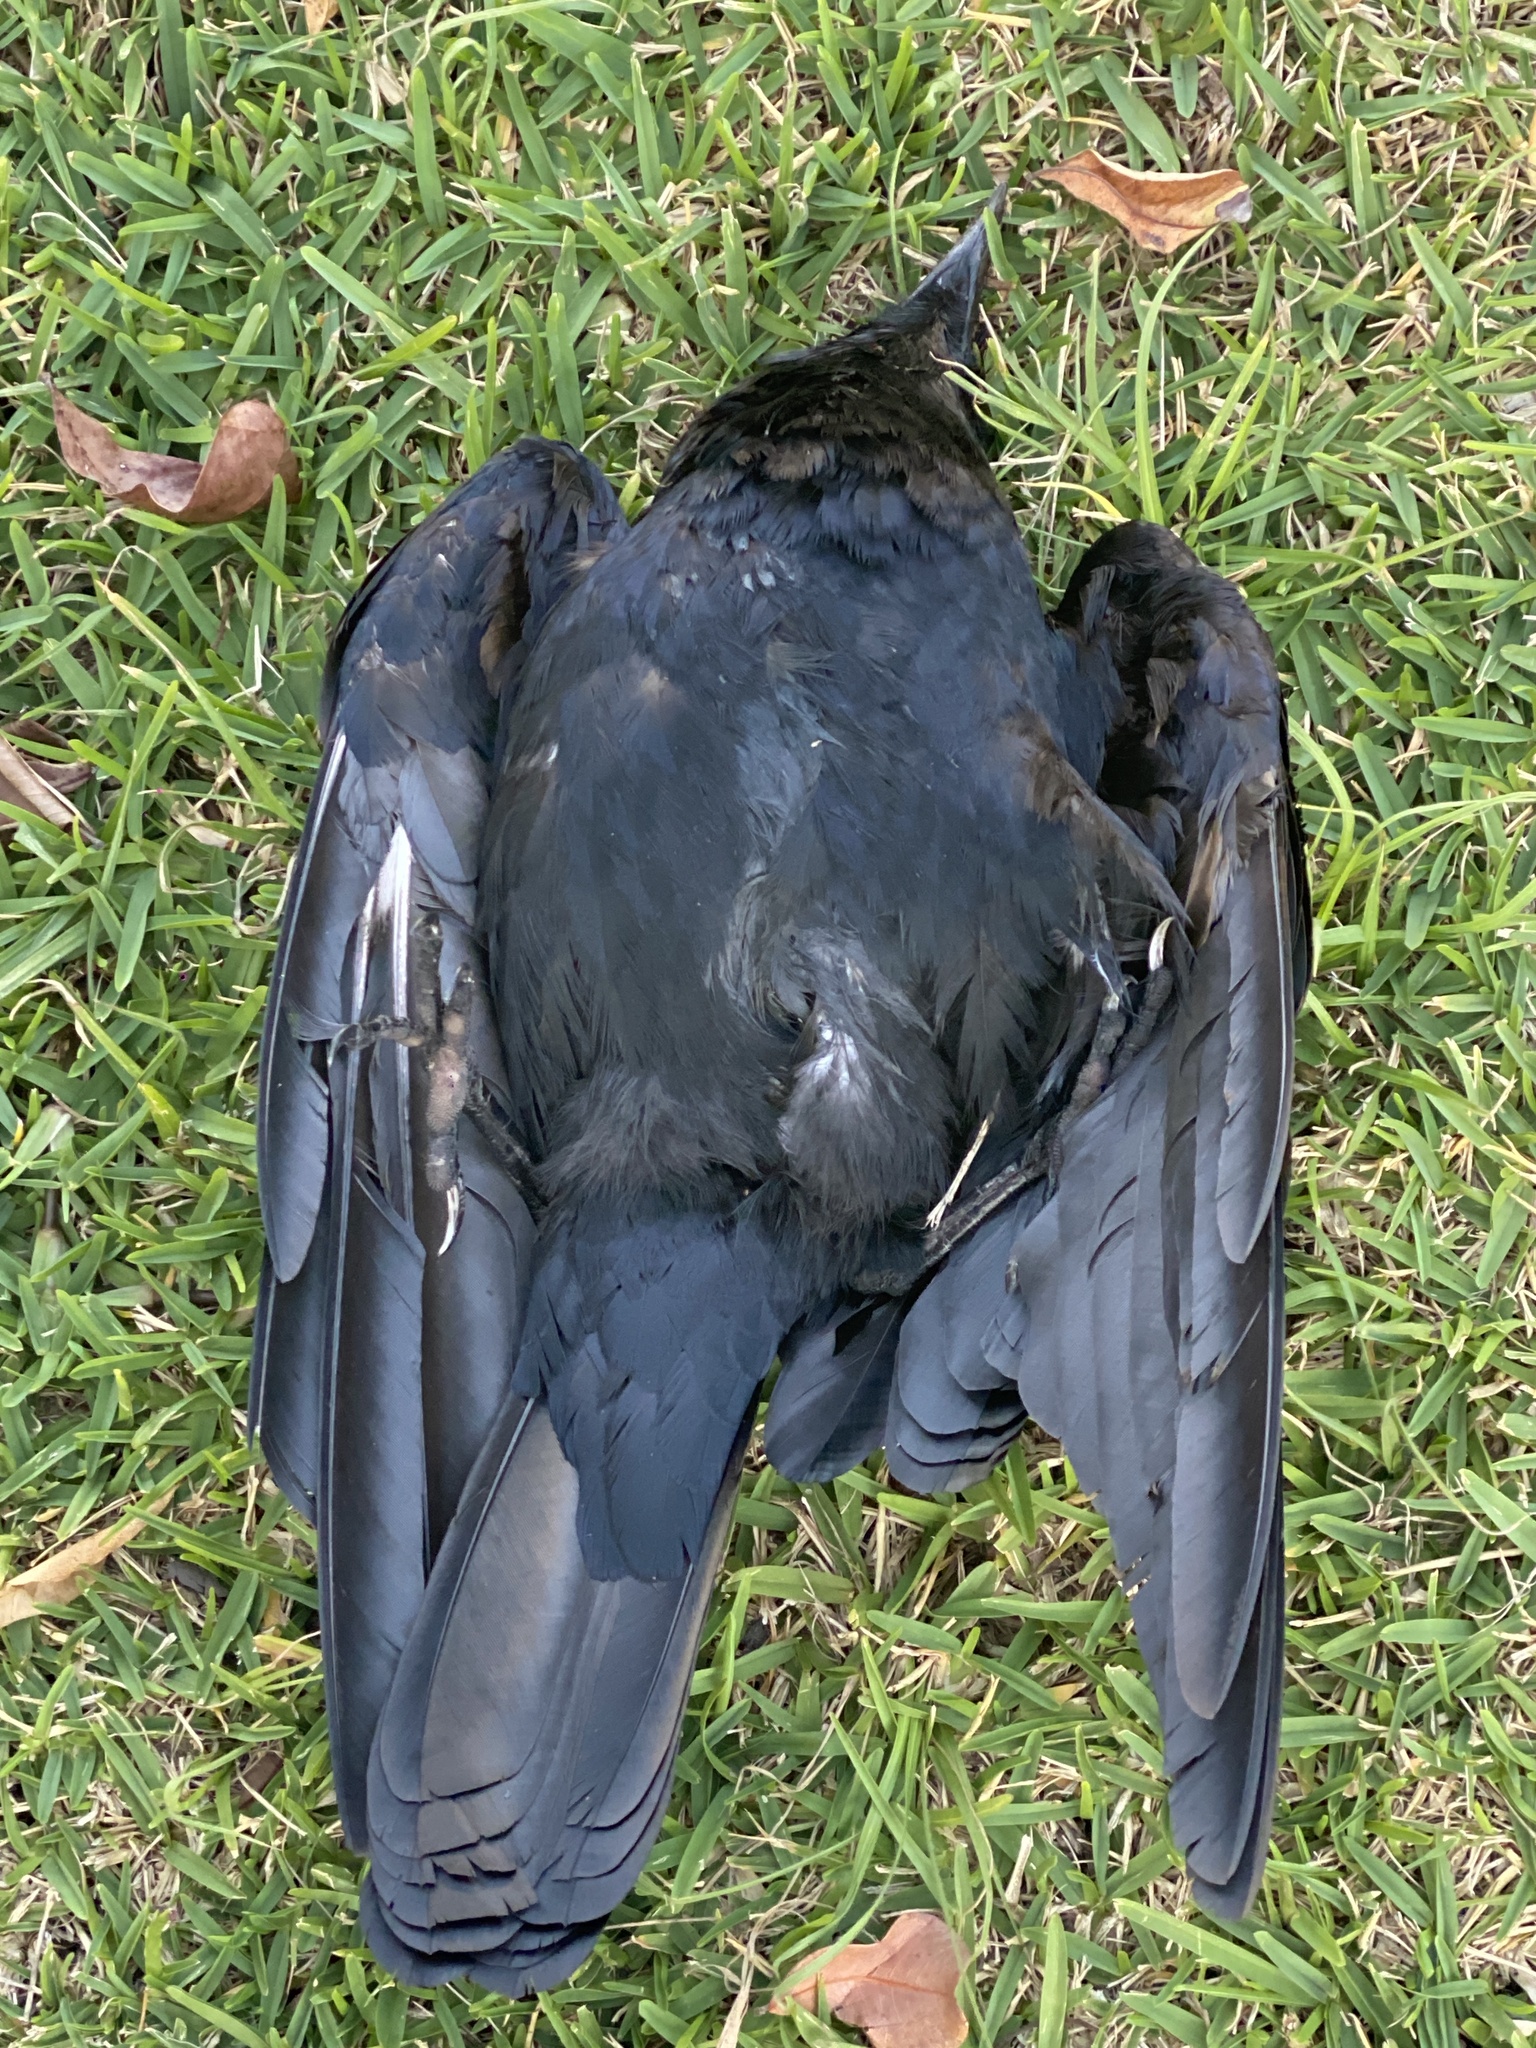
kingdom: Animalia
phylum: Chordata
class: Aves
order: Passeriformes
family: Corvidae
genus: Corvus
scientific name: Corvus orru
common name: Torresian crow
